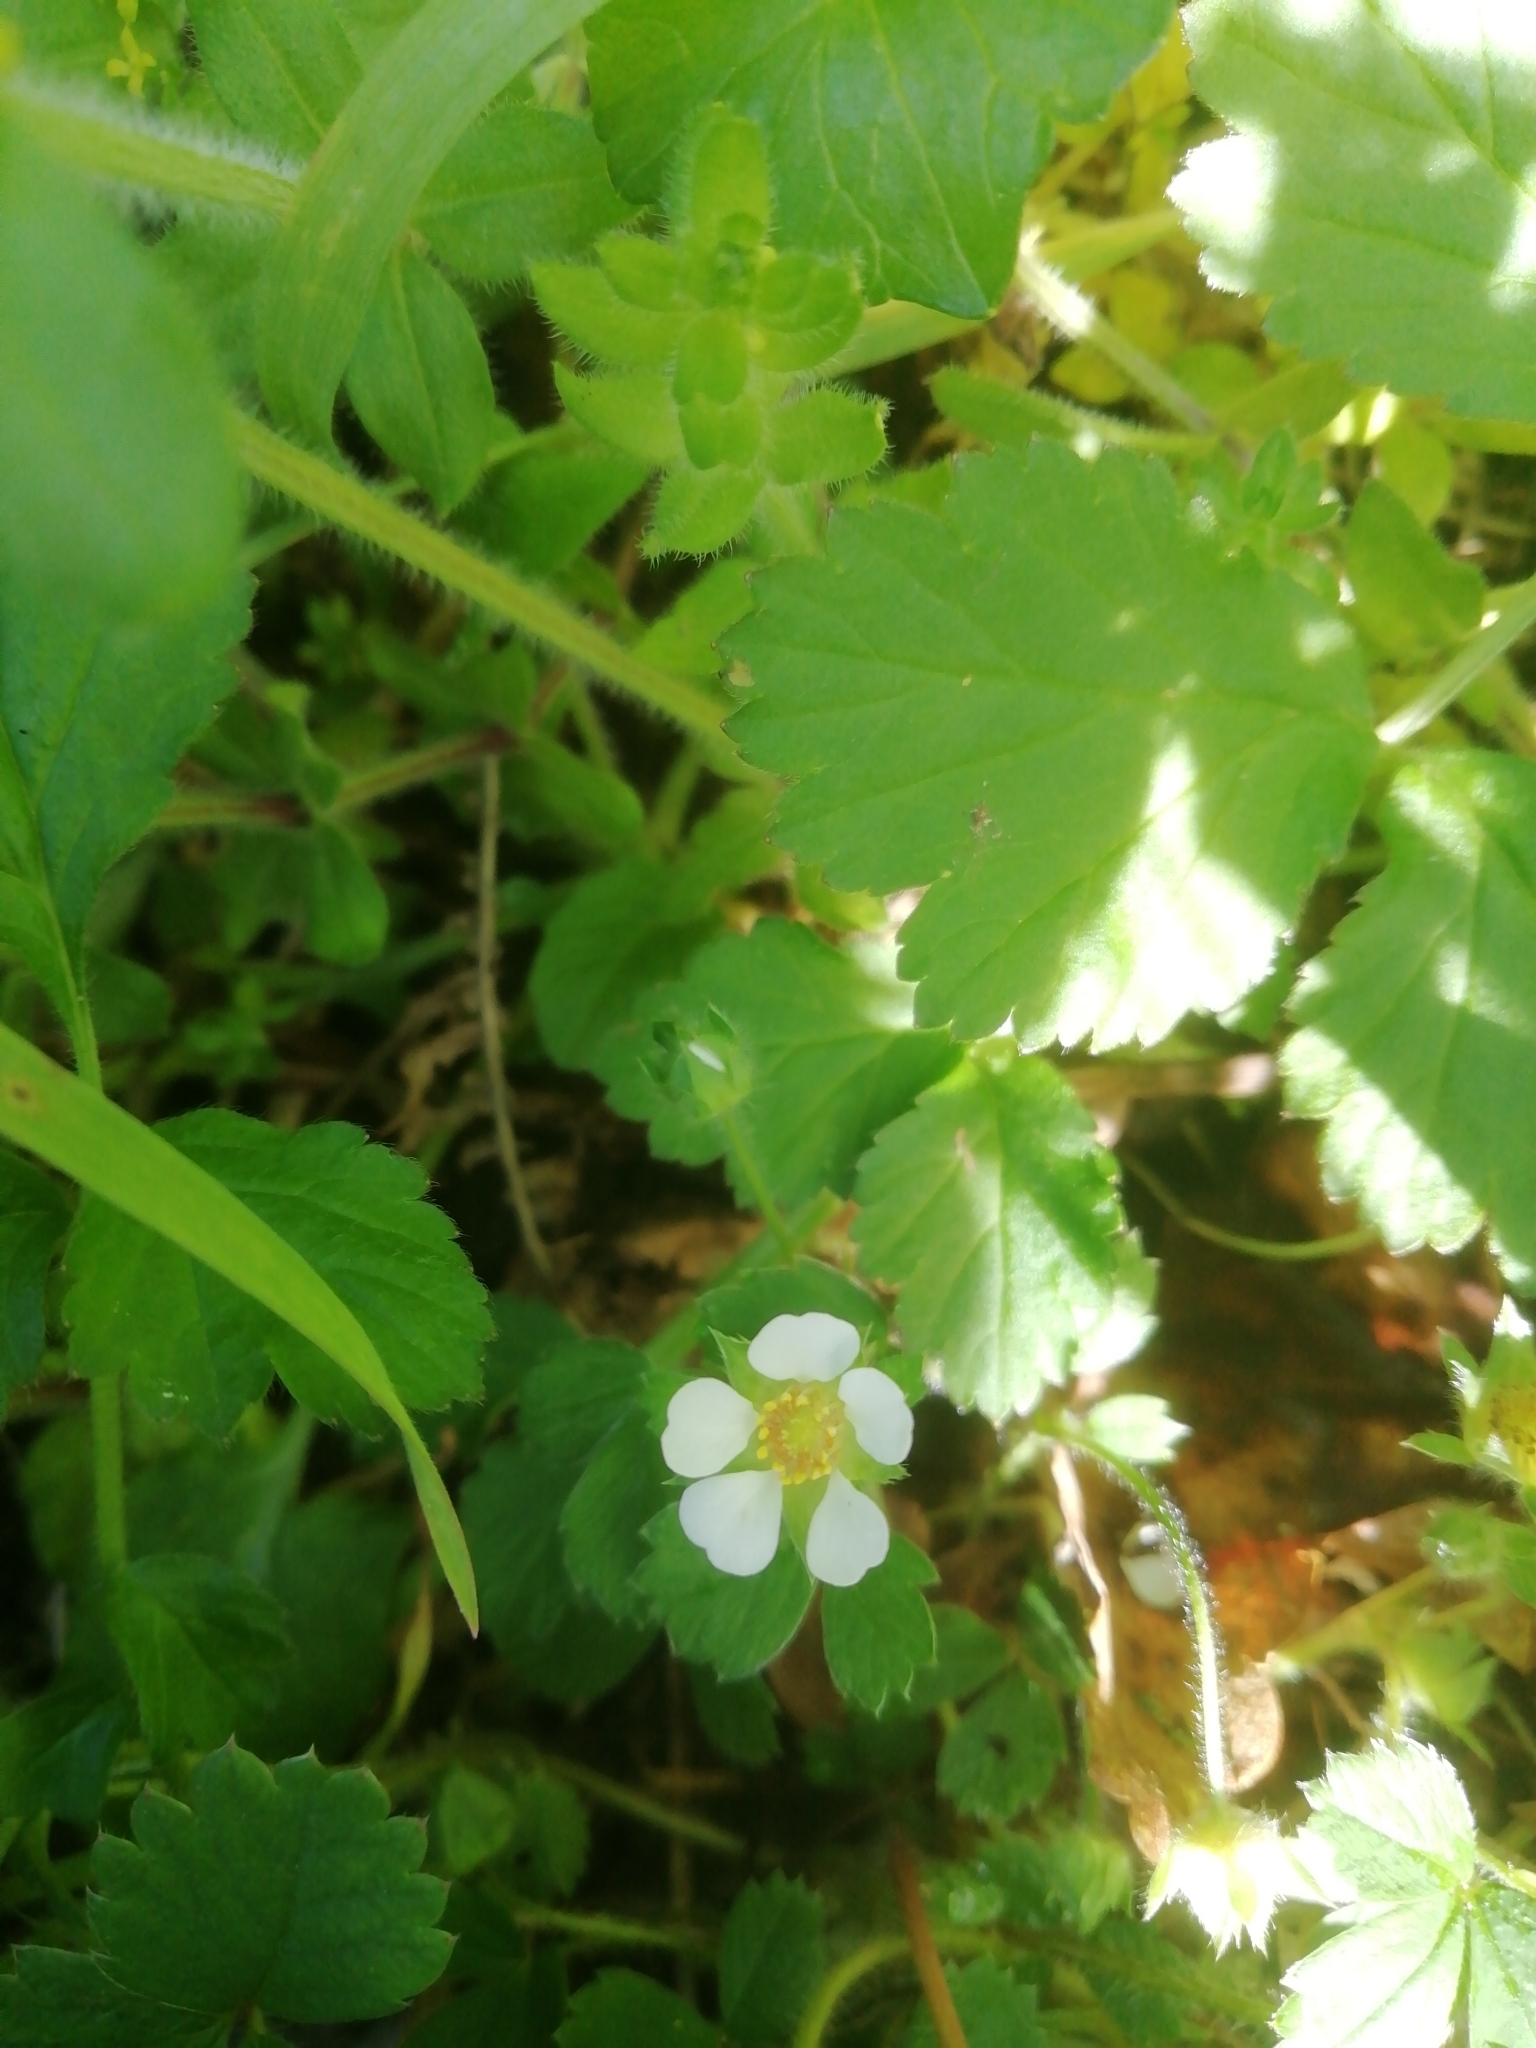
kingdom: Plantae
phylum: Tracheophyta
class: Magnoliopsida
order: Rosales
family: Rosaceae
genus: Potentilla
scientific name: Potentilla sterilis
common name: Barren strawberry
